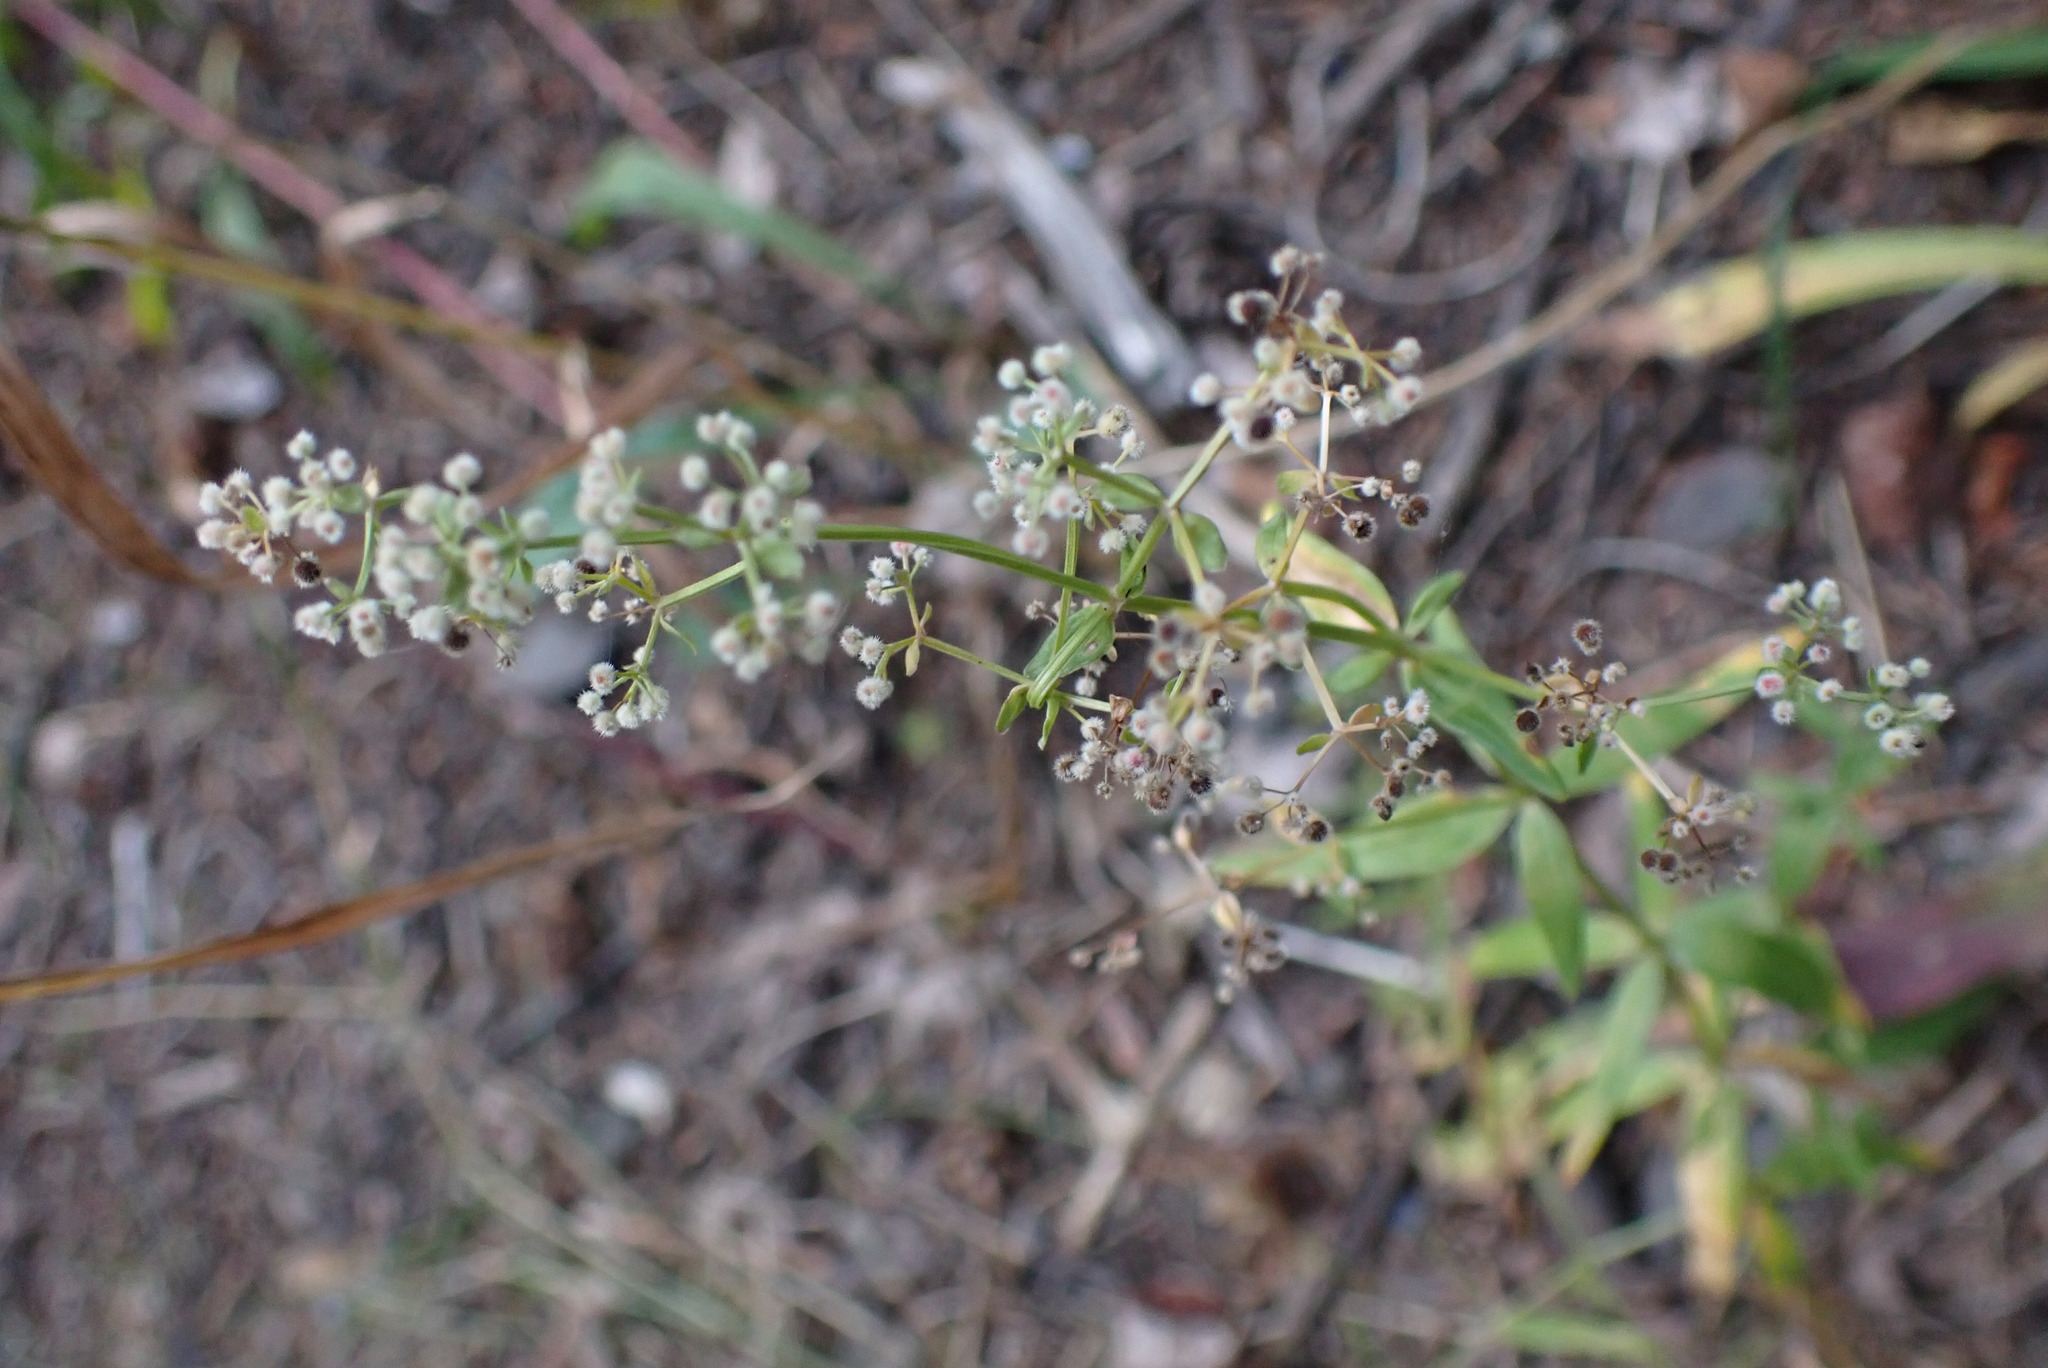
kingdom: Plantae
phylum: Tracheophyta
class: Magnoliopsida
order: Gentianales
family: Rubiaceae
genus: Galium
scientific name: Galium boreale
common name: Northern bedstraw
